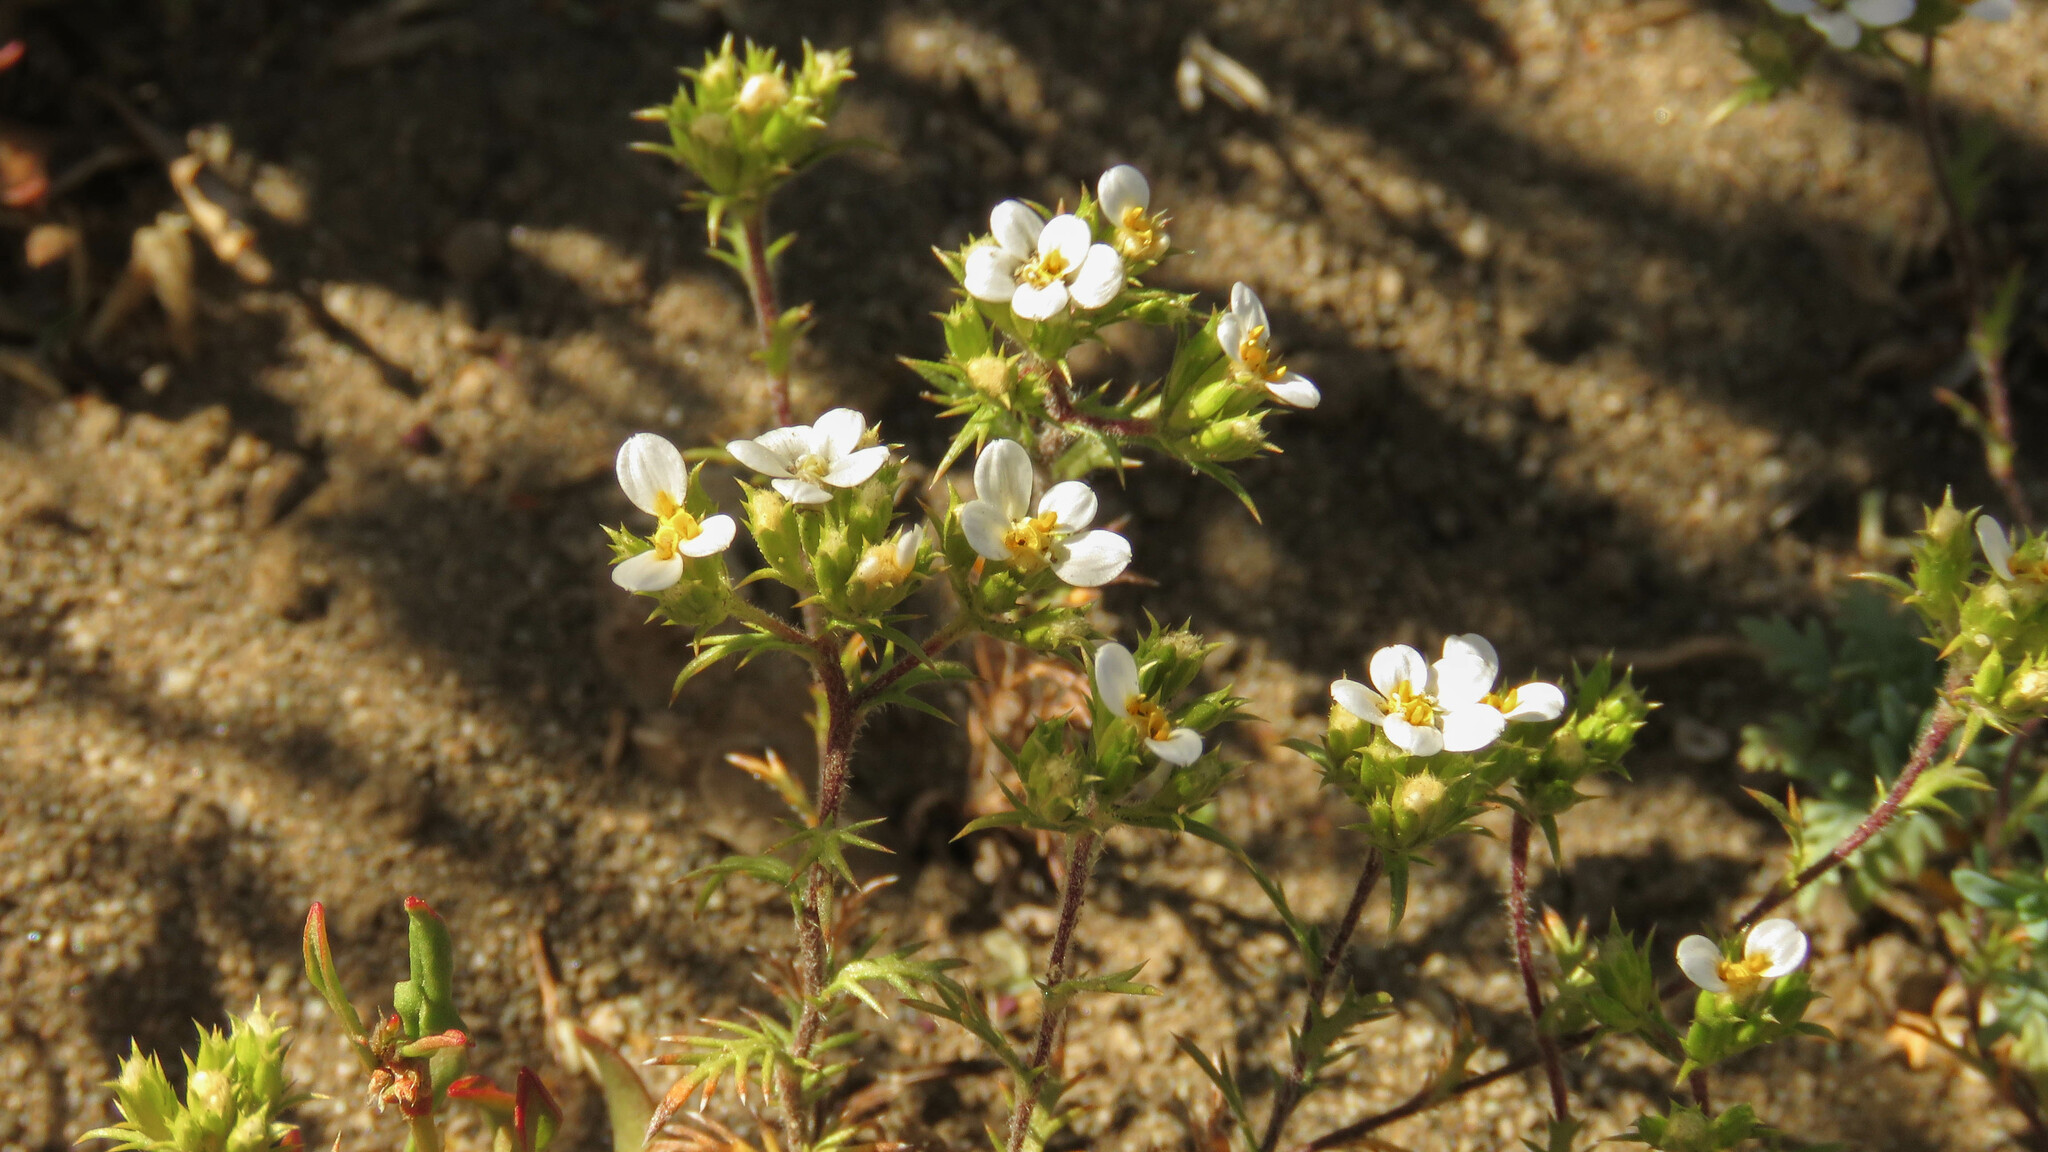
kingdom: Plantae
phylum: Tracheophyta
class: Magnoliopsida
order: Asterales
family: Asteraceae
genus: Triptilion
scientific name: Triptilion achilleae
